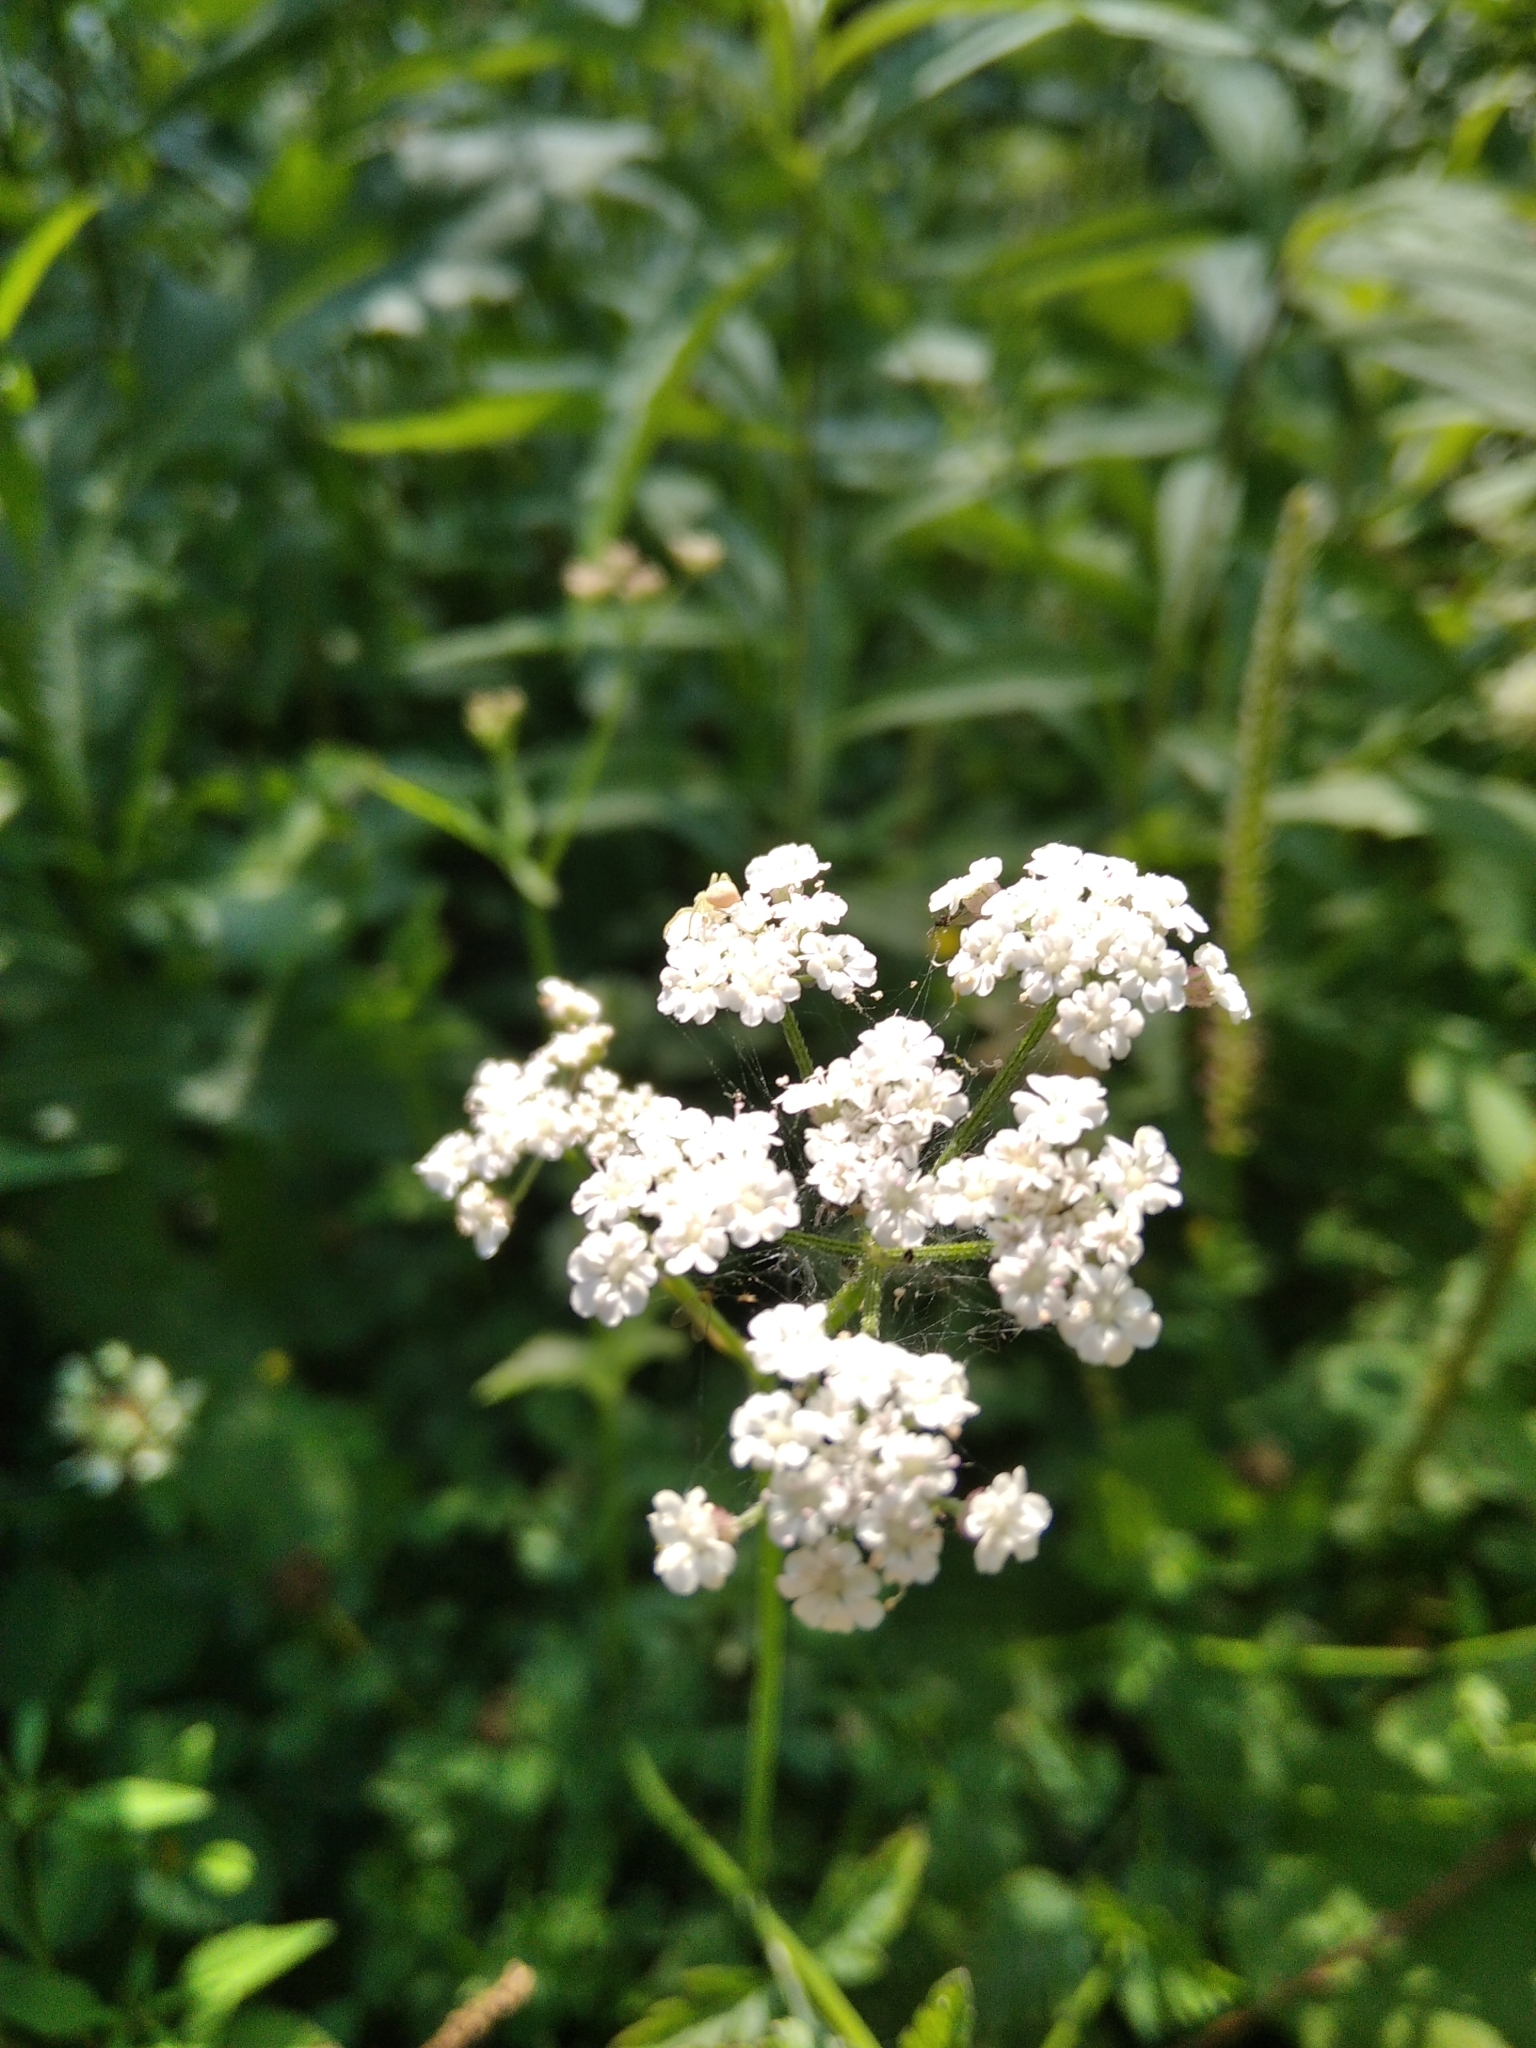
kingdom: Plantae
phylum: Tracheophyta
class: Magnoliopsida
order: Apiales
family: Apiaceae
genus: Torilis
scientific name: Torilis japonica
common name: Upright hedge-parsley
